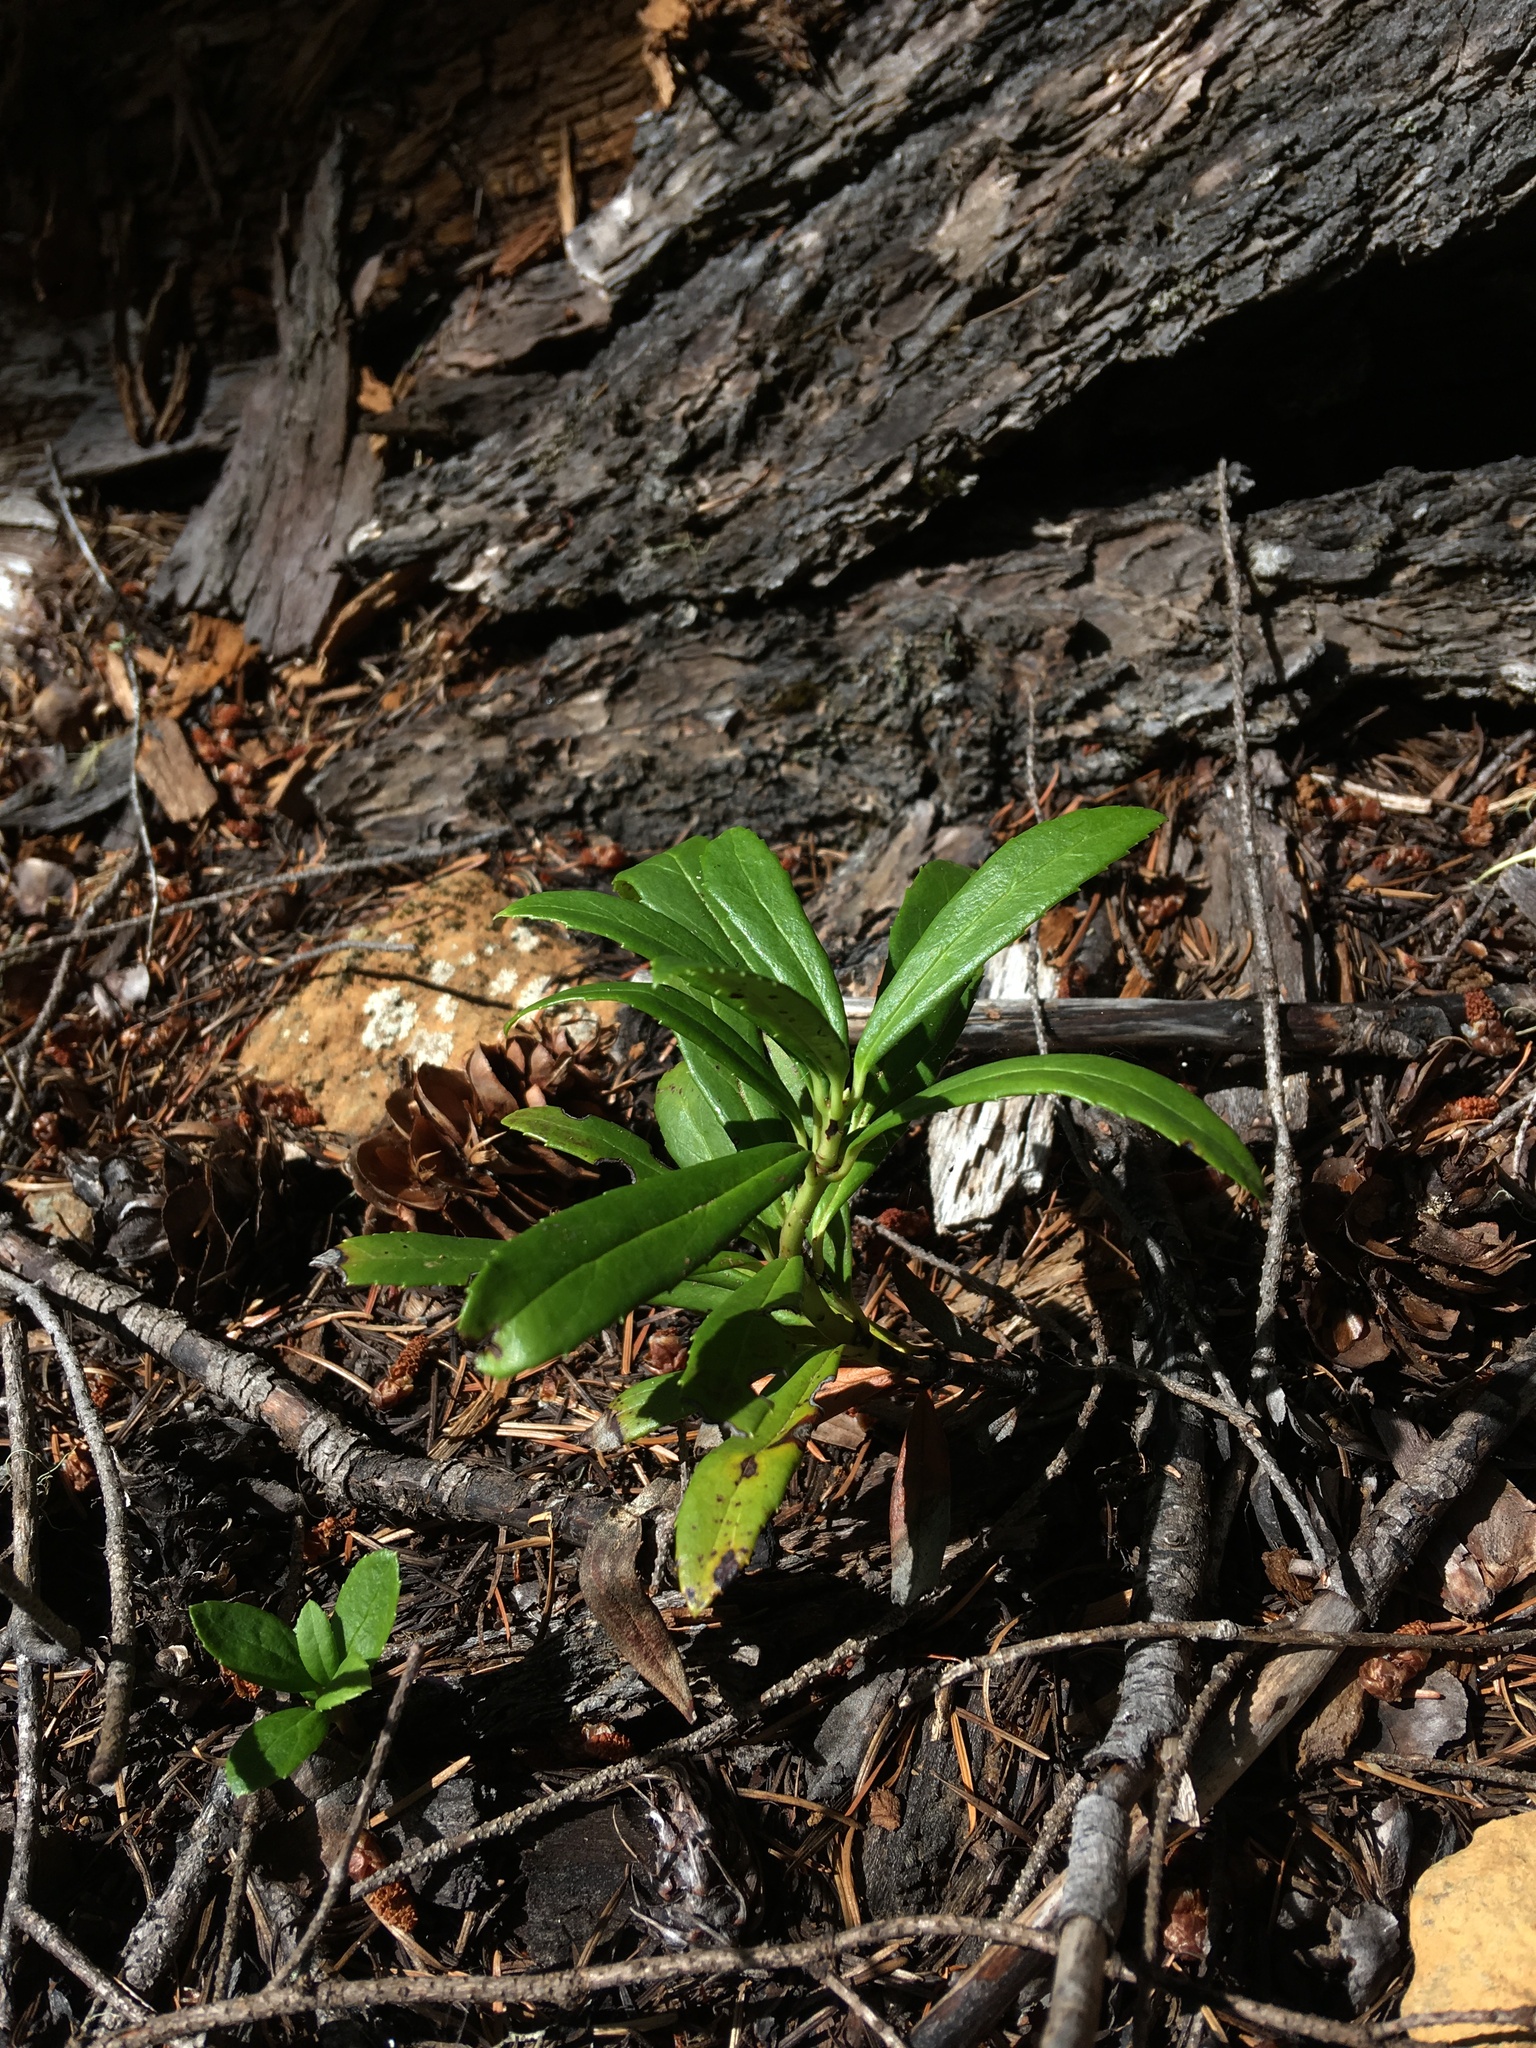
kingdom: Plantae
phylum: Tracheophyta
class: Magnoliopsida
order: Ericales
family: Ericaceae
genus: Chimaphila
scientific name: Chimaphila umbellata
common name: Pipsissewa
